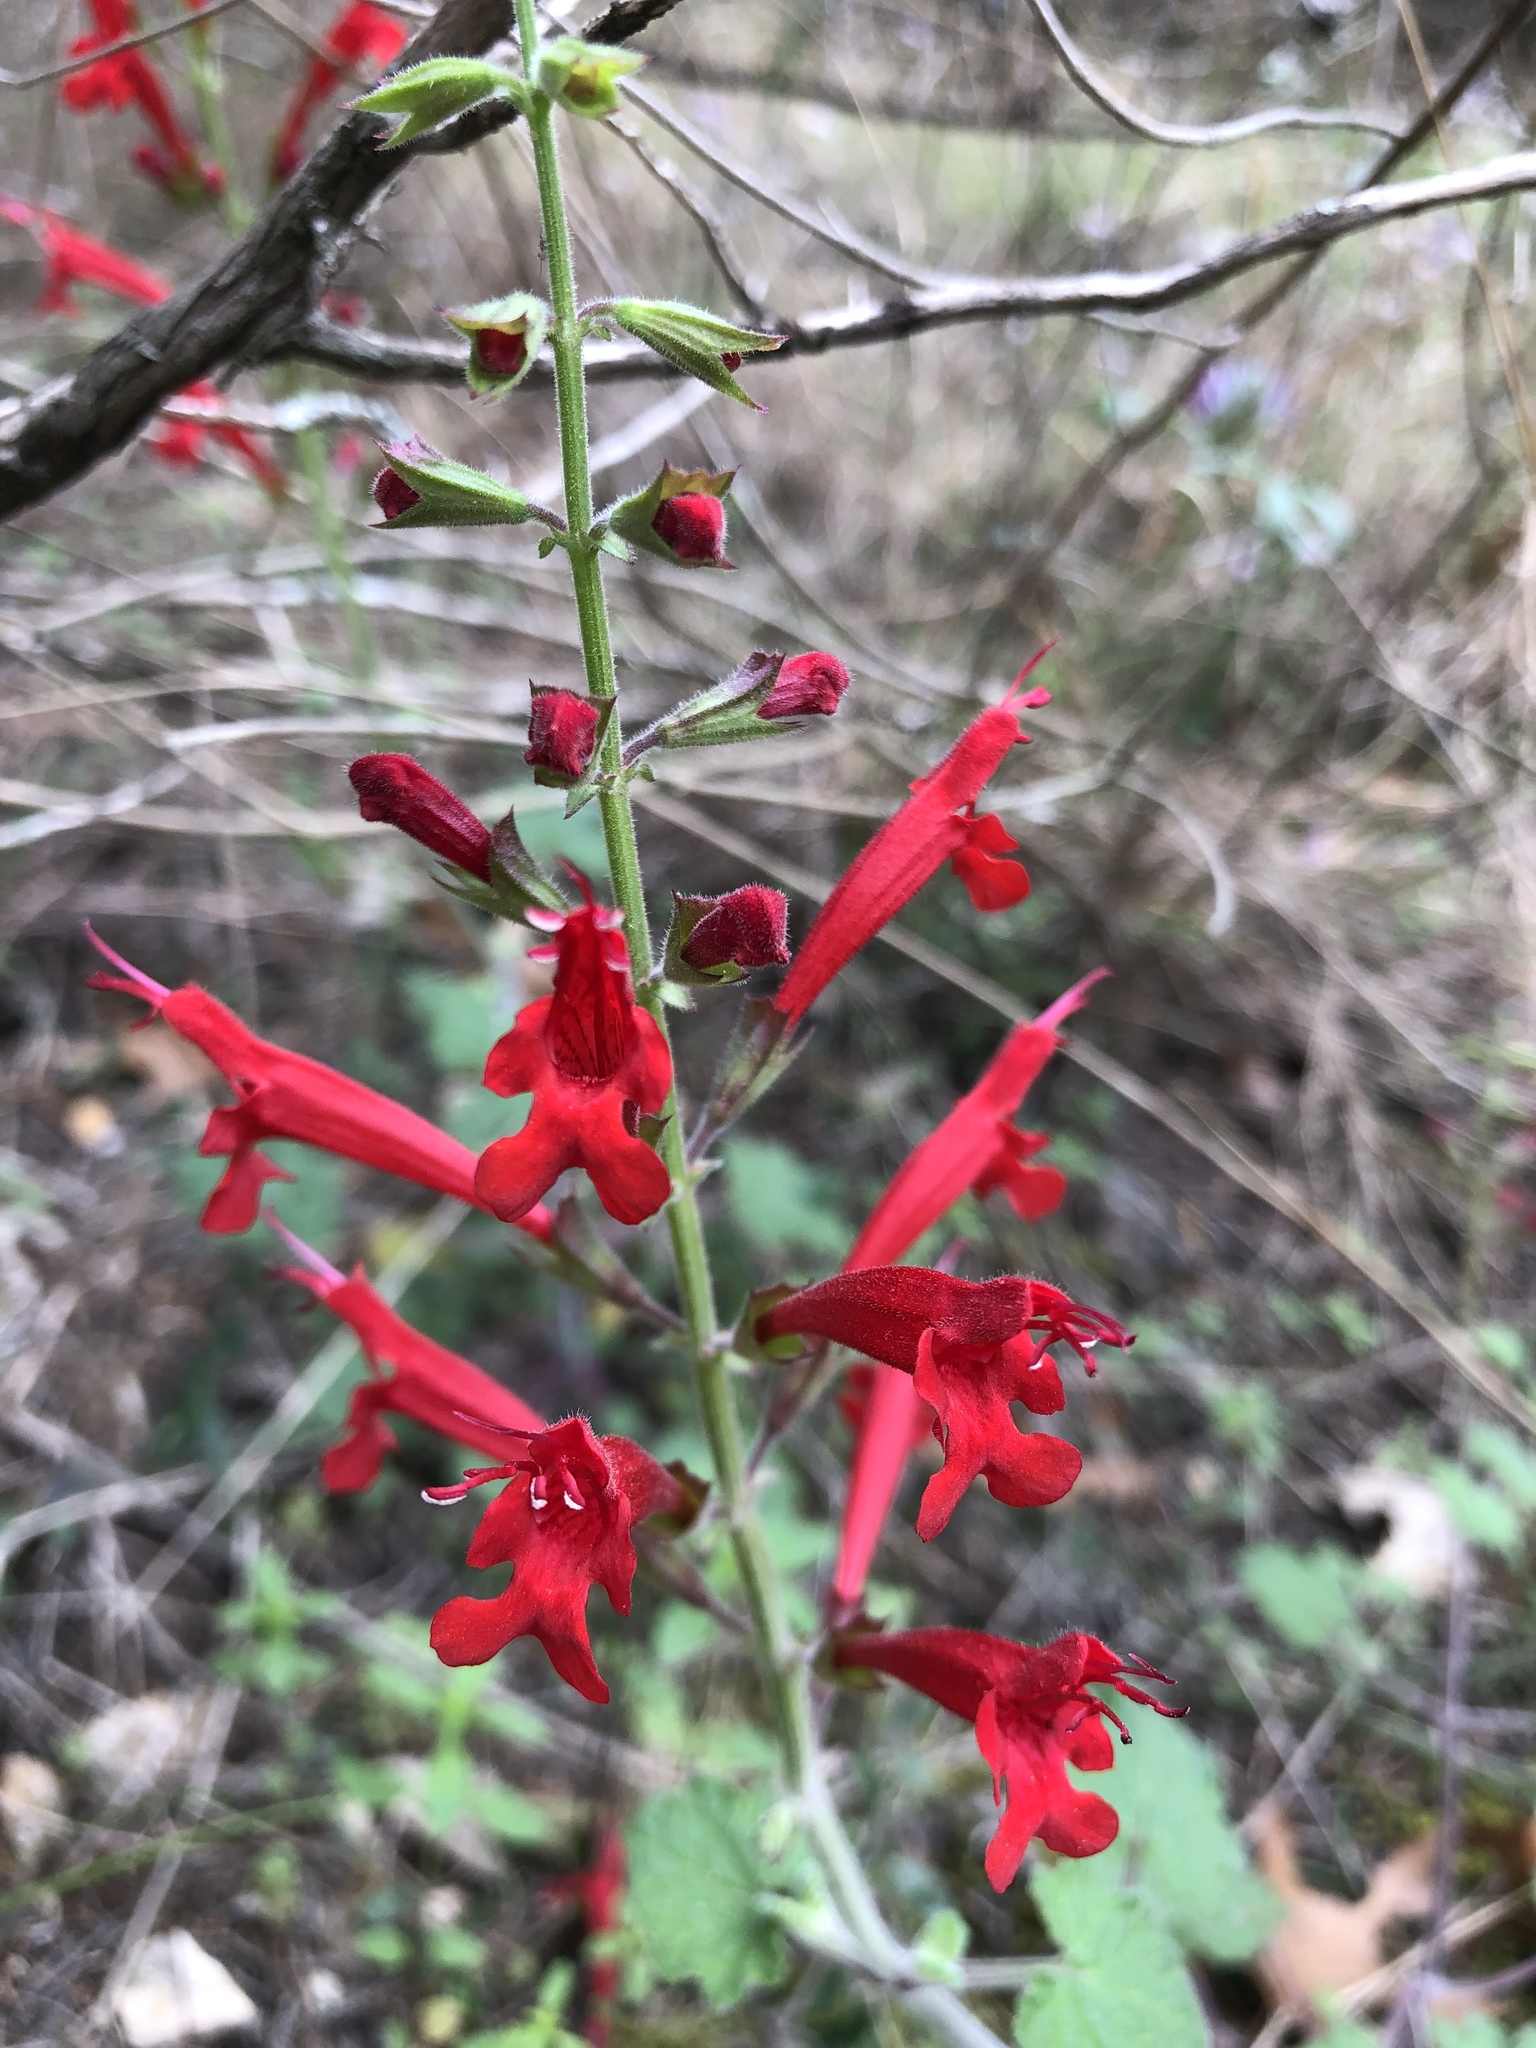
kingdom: Plantae
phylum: Tracheophyta
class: Magnoliopsida
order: Lamiales
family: Lamiaceae
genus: Salvia
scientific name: Salvia roemeriana
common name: Cedar sage
